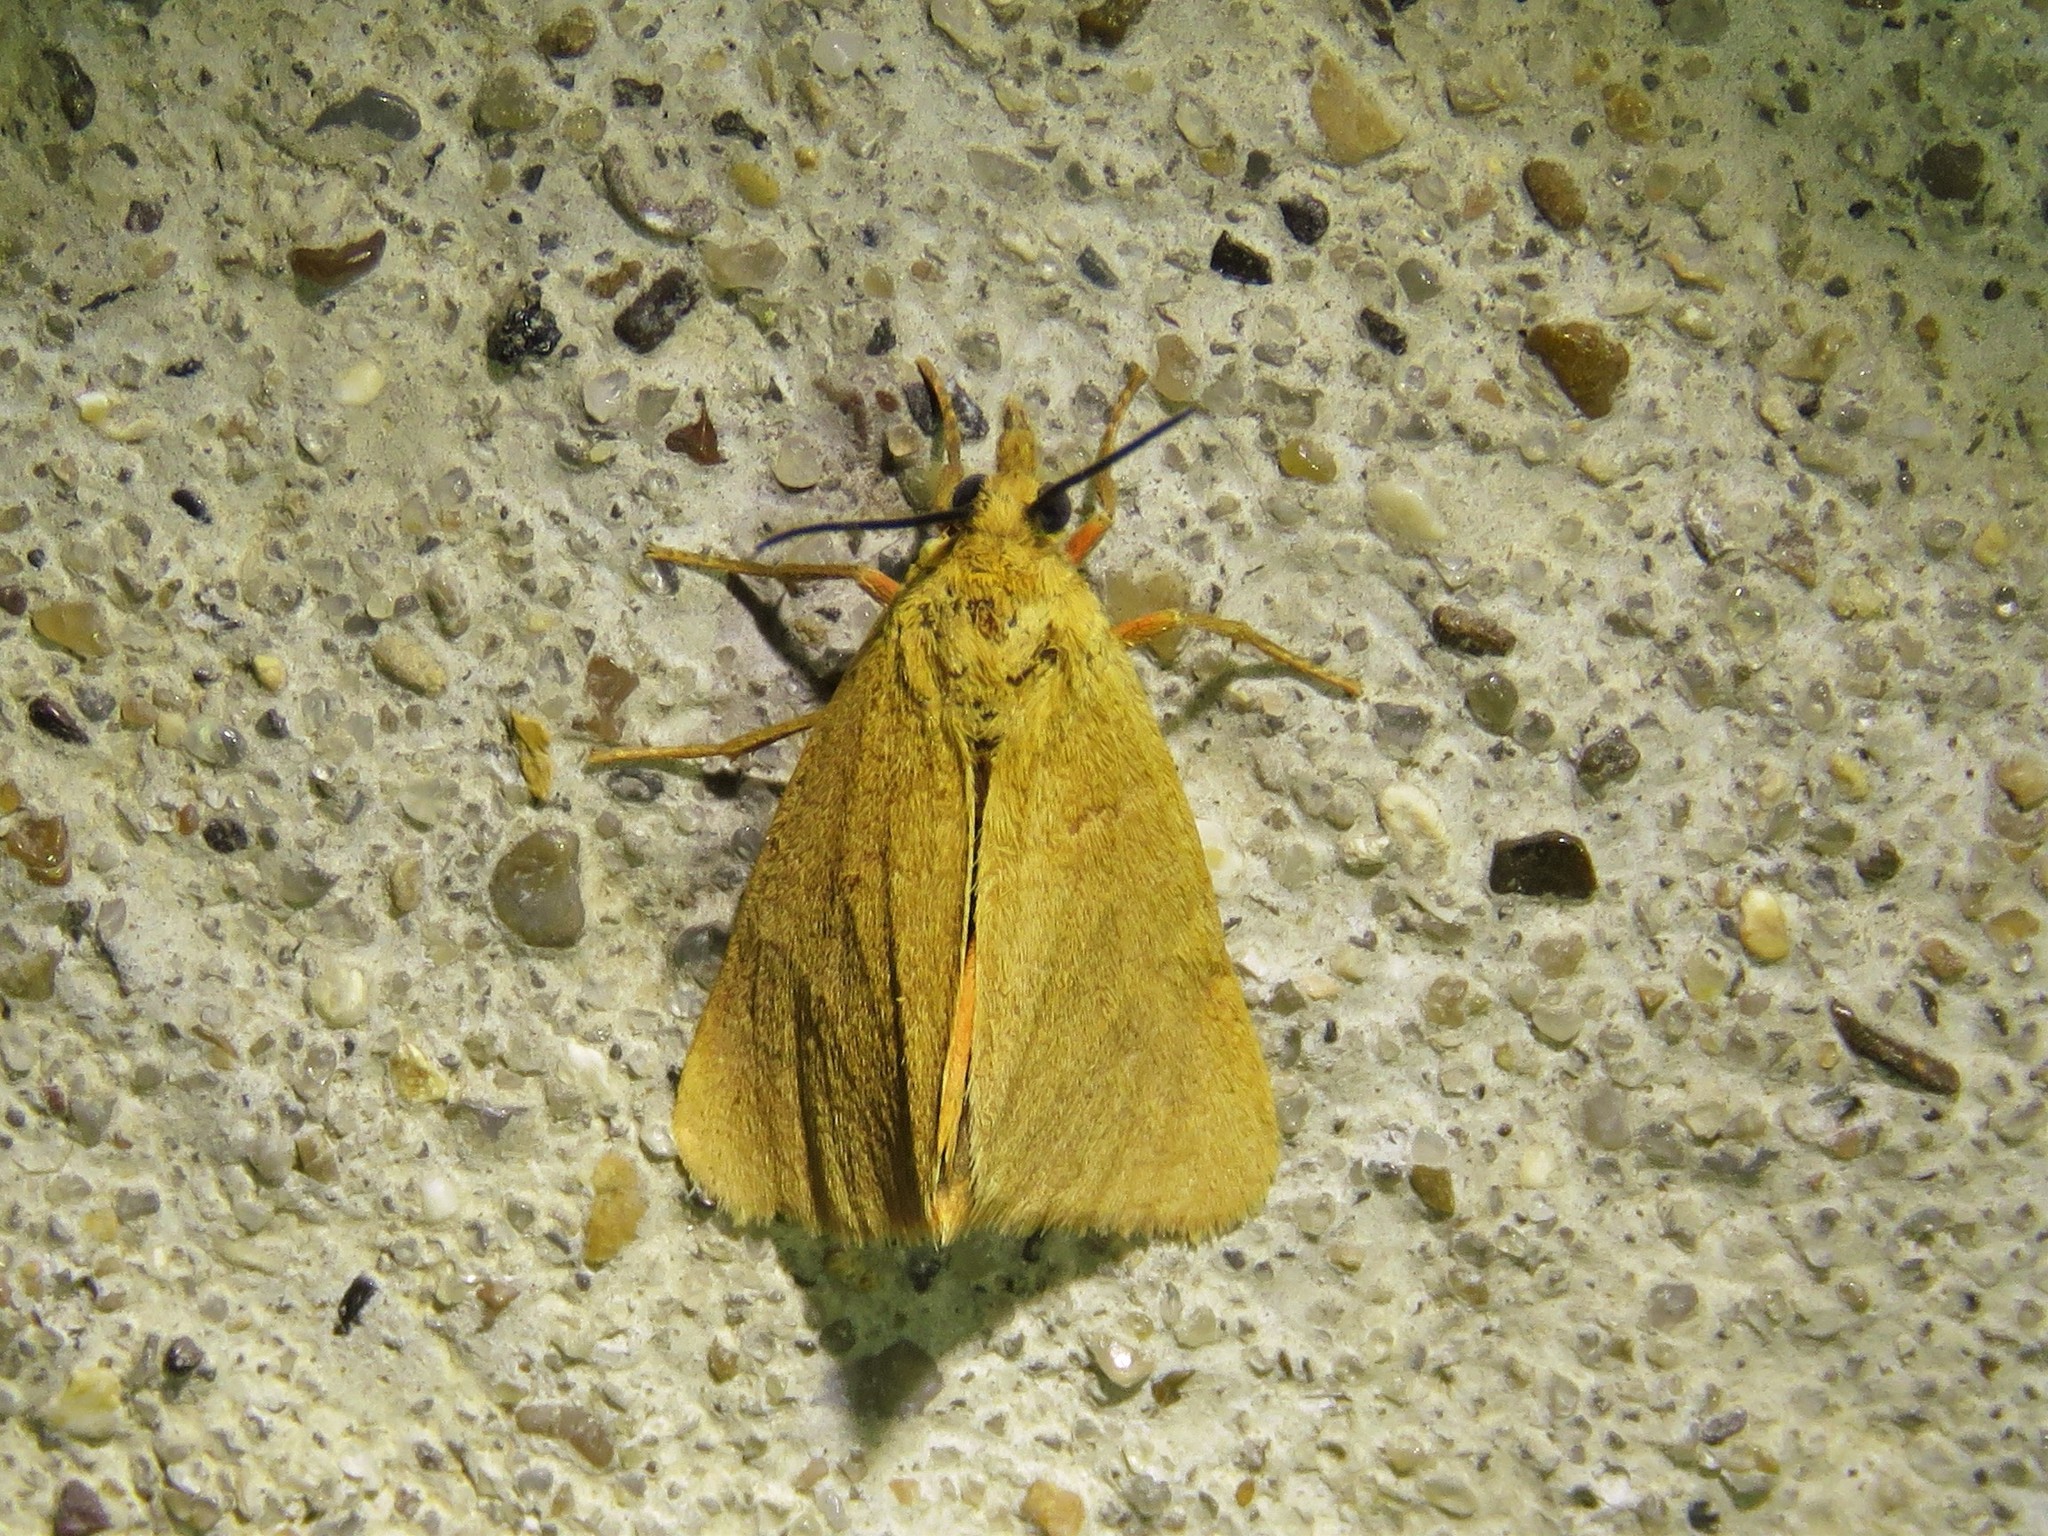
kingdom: Animalia
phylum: Arthropoda
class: Insecta
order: Lepidoptera
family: Erebidae
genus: Virbia
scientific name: Virbia aurantiaca
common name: Orange virbia moth
